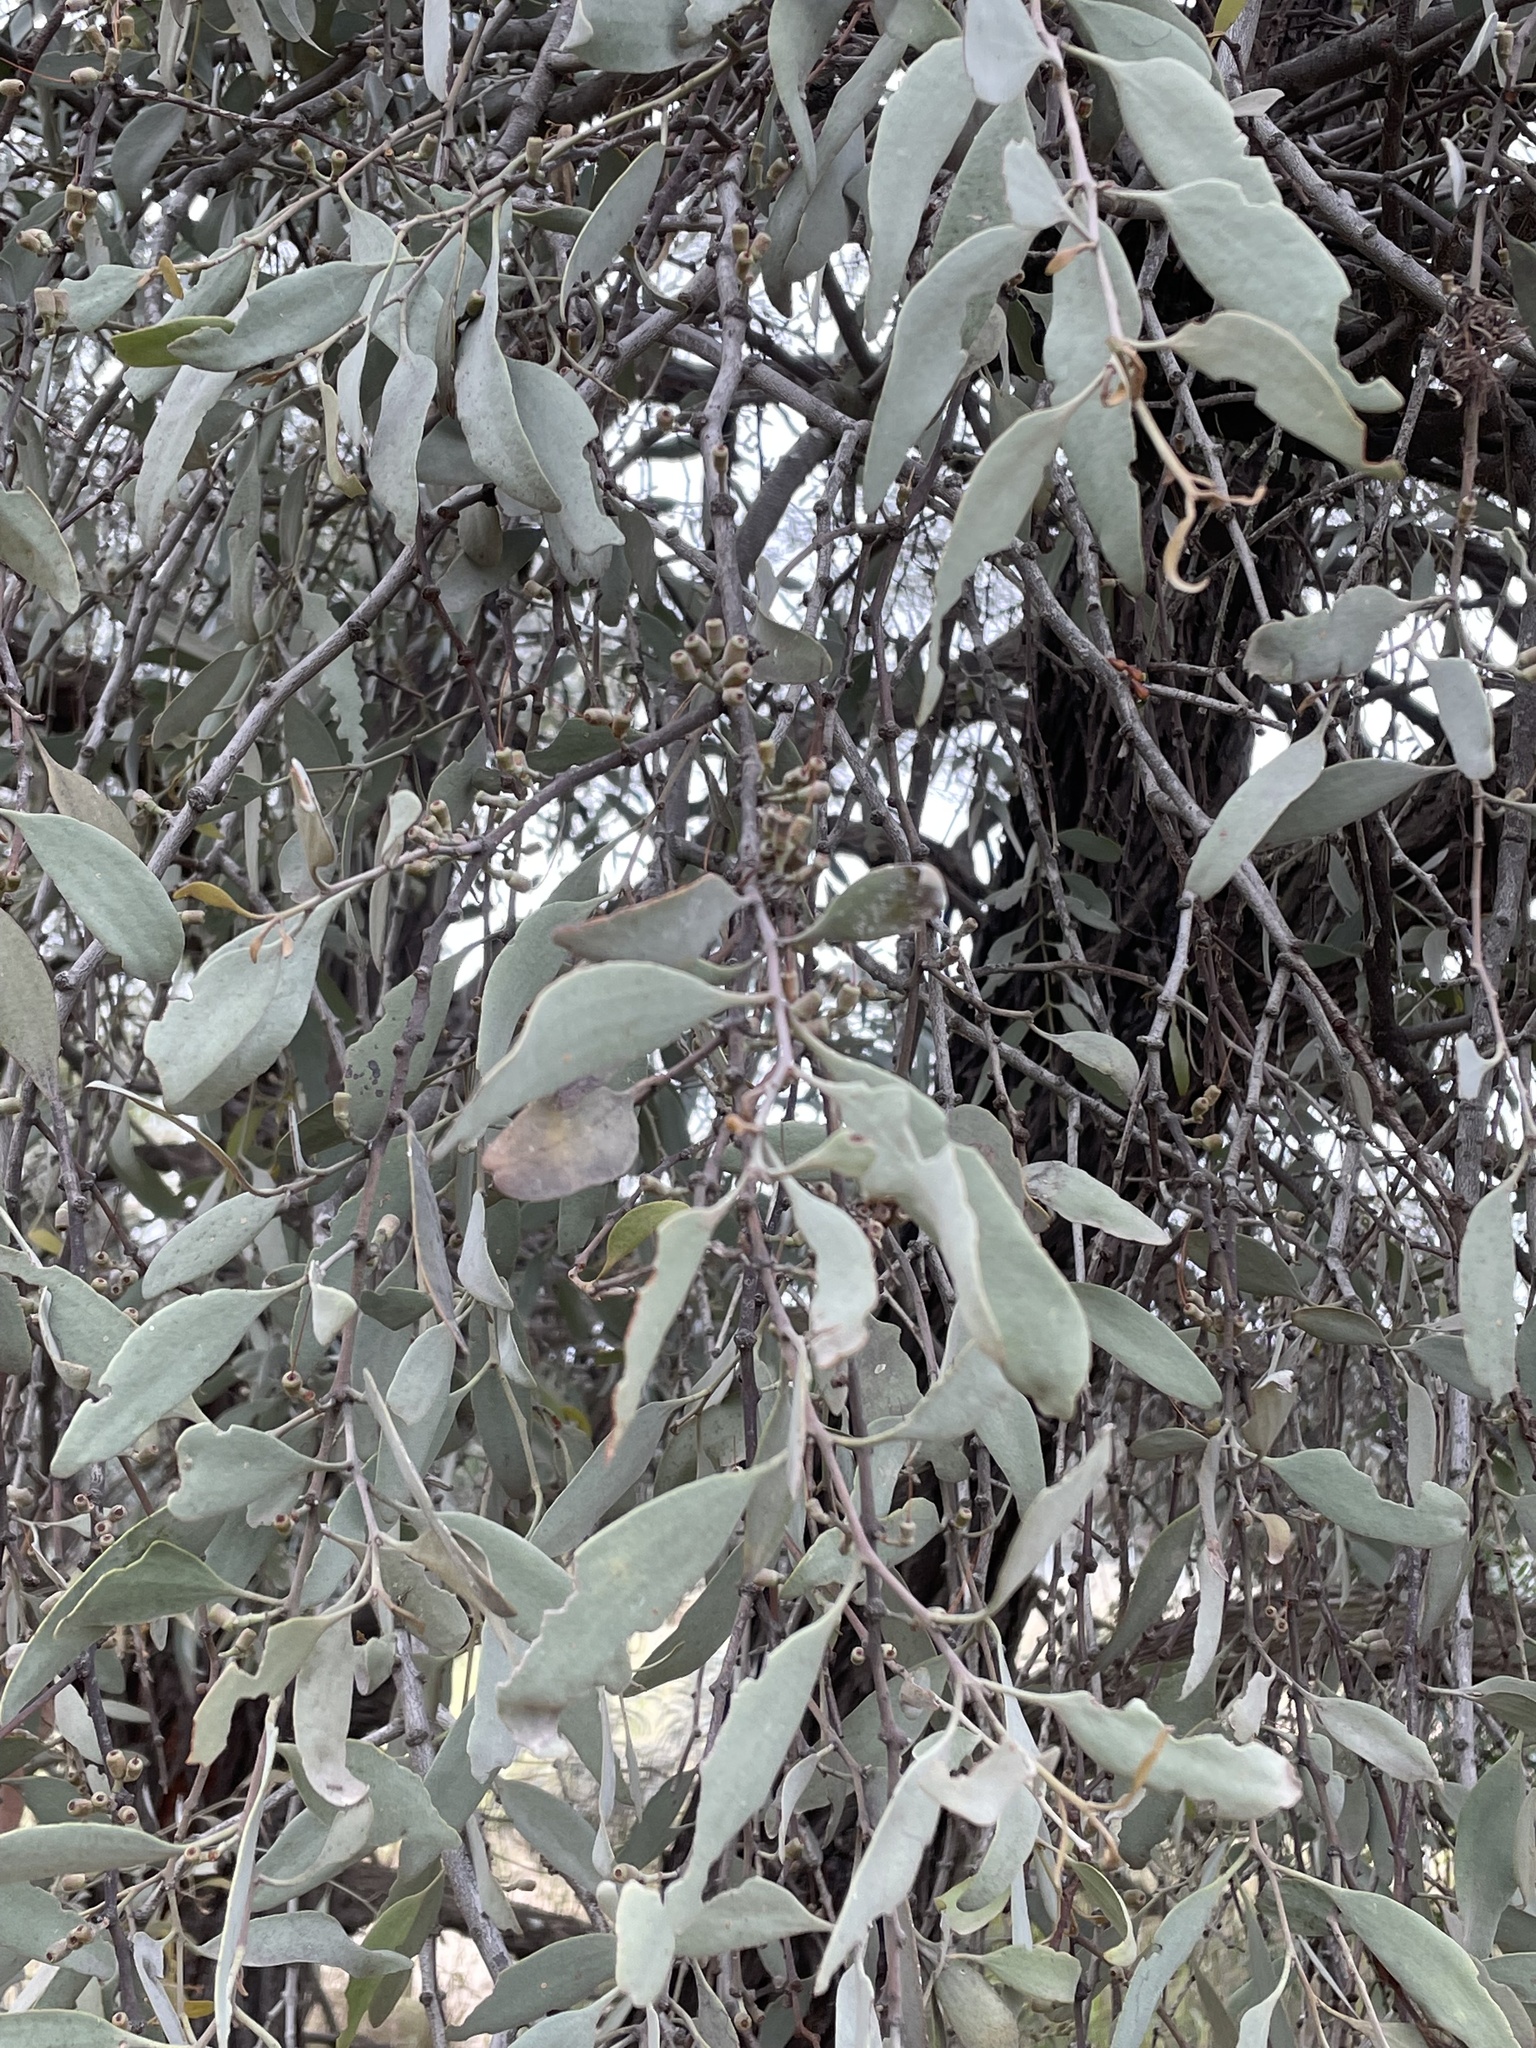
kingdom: Plantae
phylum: Tracheophyta
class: Magnoliopsida
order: Santalales
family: Loranthaceae
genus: Amyema
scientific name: Amyema quandang
